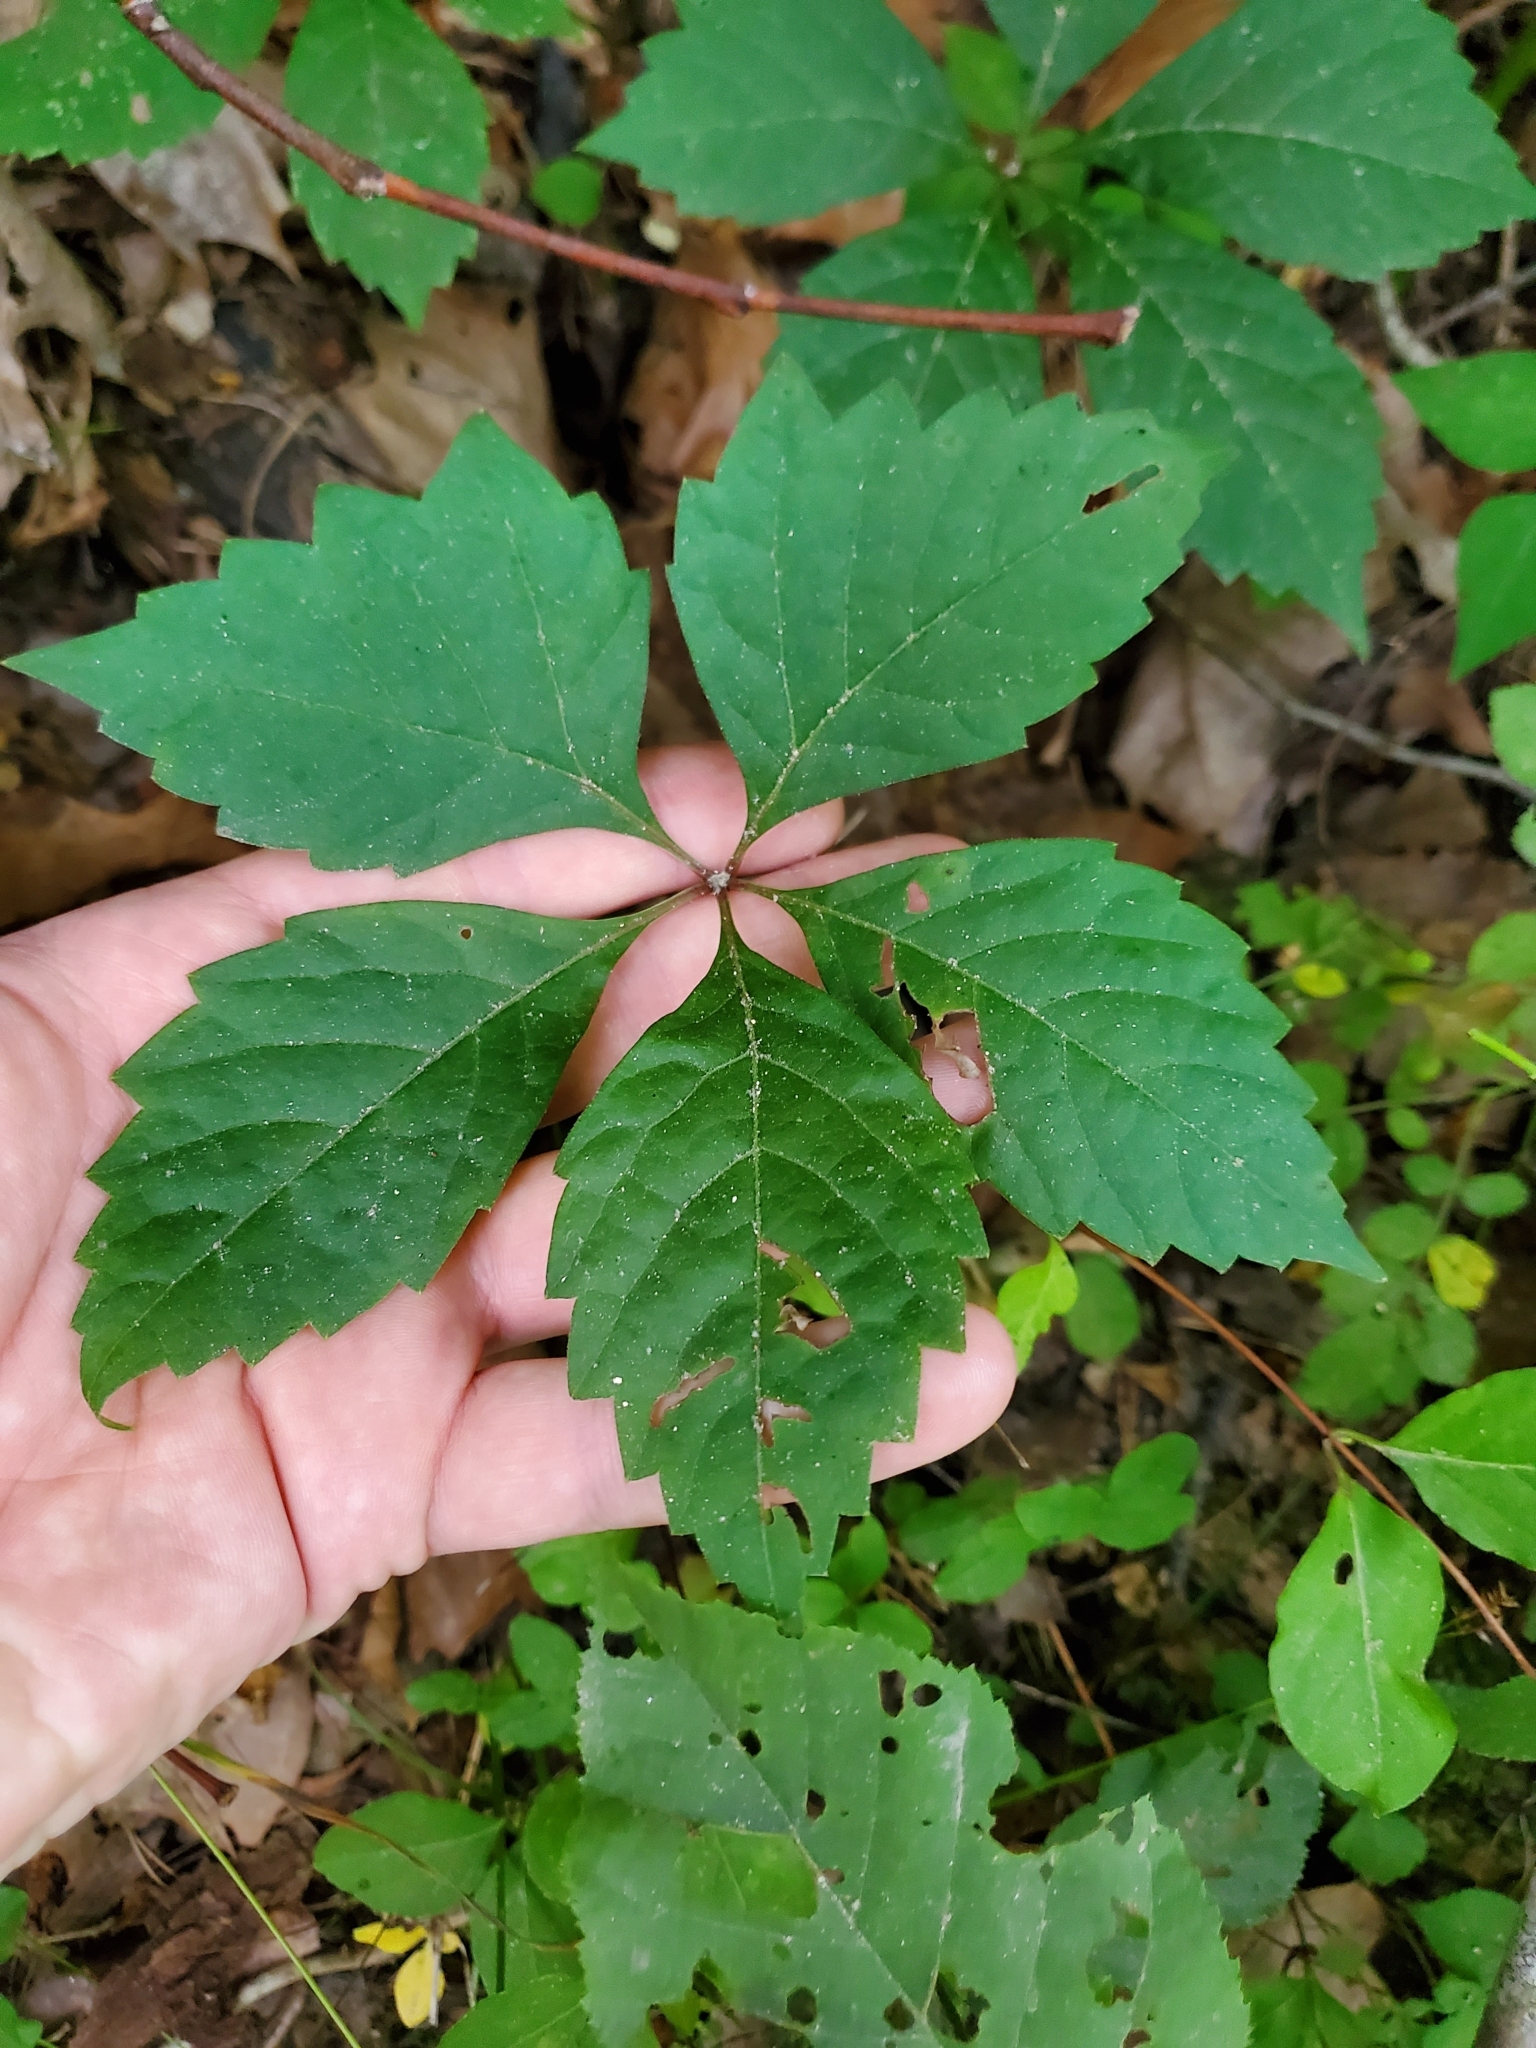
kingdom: Plantae
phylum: Tracheophyta
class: Magnoliopsida
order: Vitales
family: Vitaceae
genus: Parthenocissus
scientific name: Parthenocissus quinquefolia
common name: Virginia-creeper
